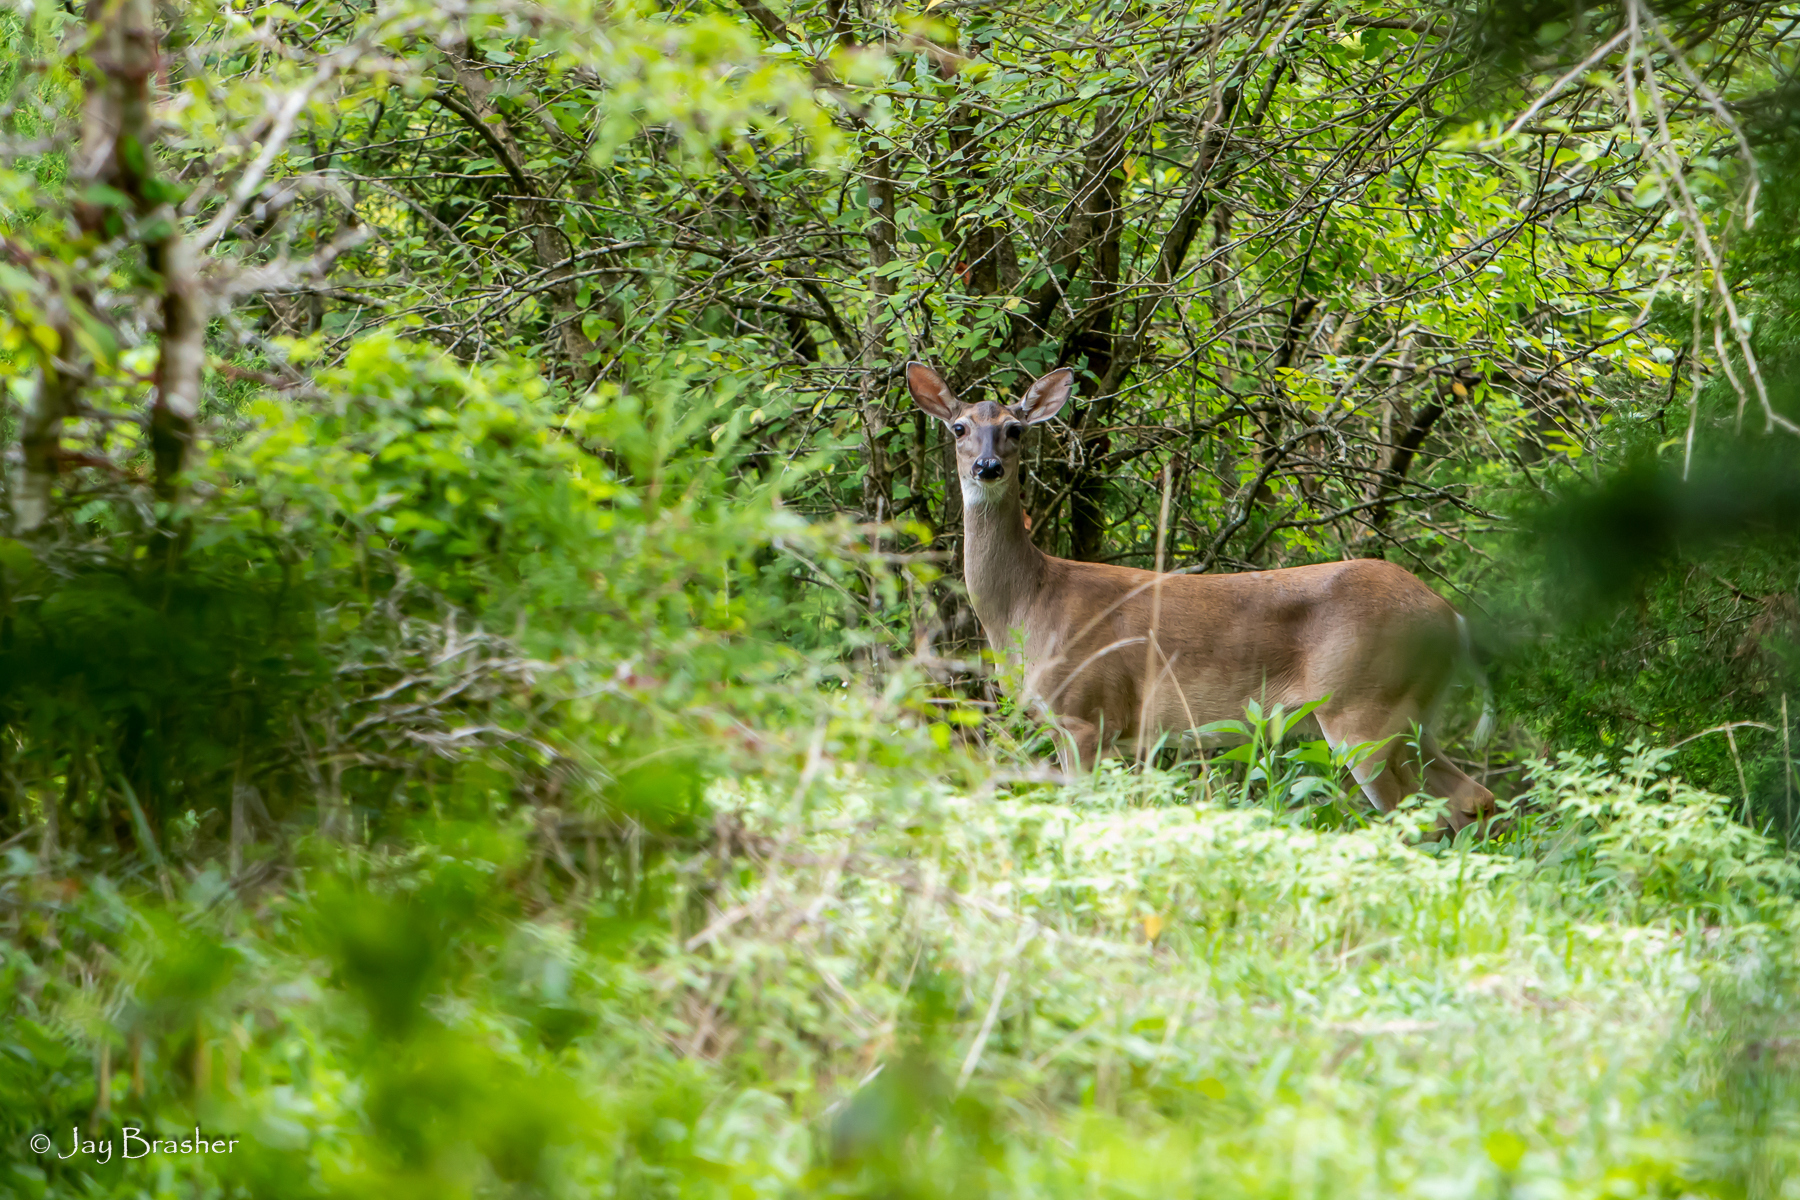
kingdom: Animalia
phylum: Chordata
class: Mammalia
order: Artiodactyla
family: Cervidae
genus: Odocoileus
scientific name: Odocoileus virginianus
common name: White-tailed deer
